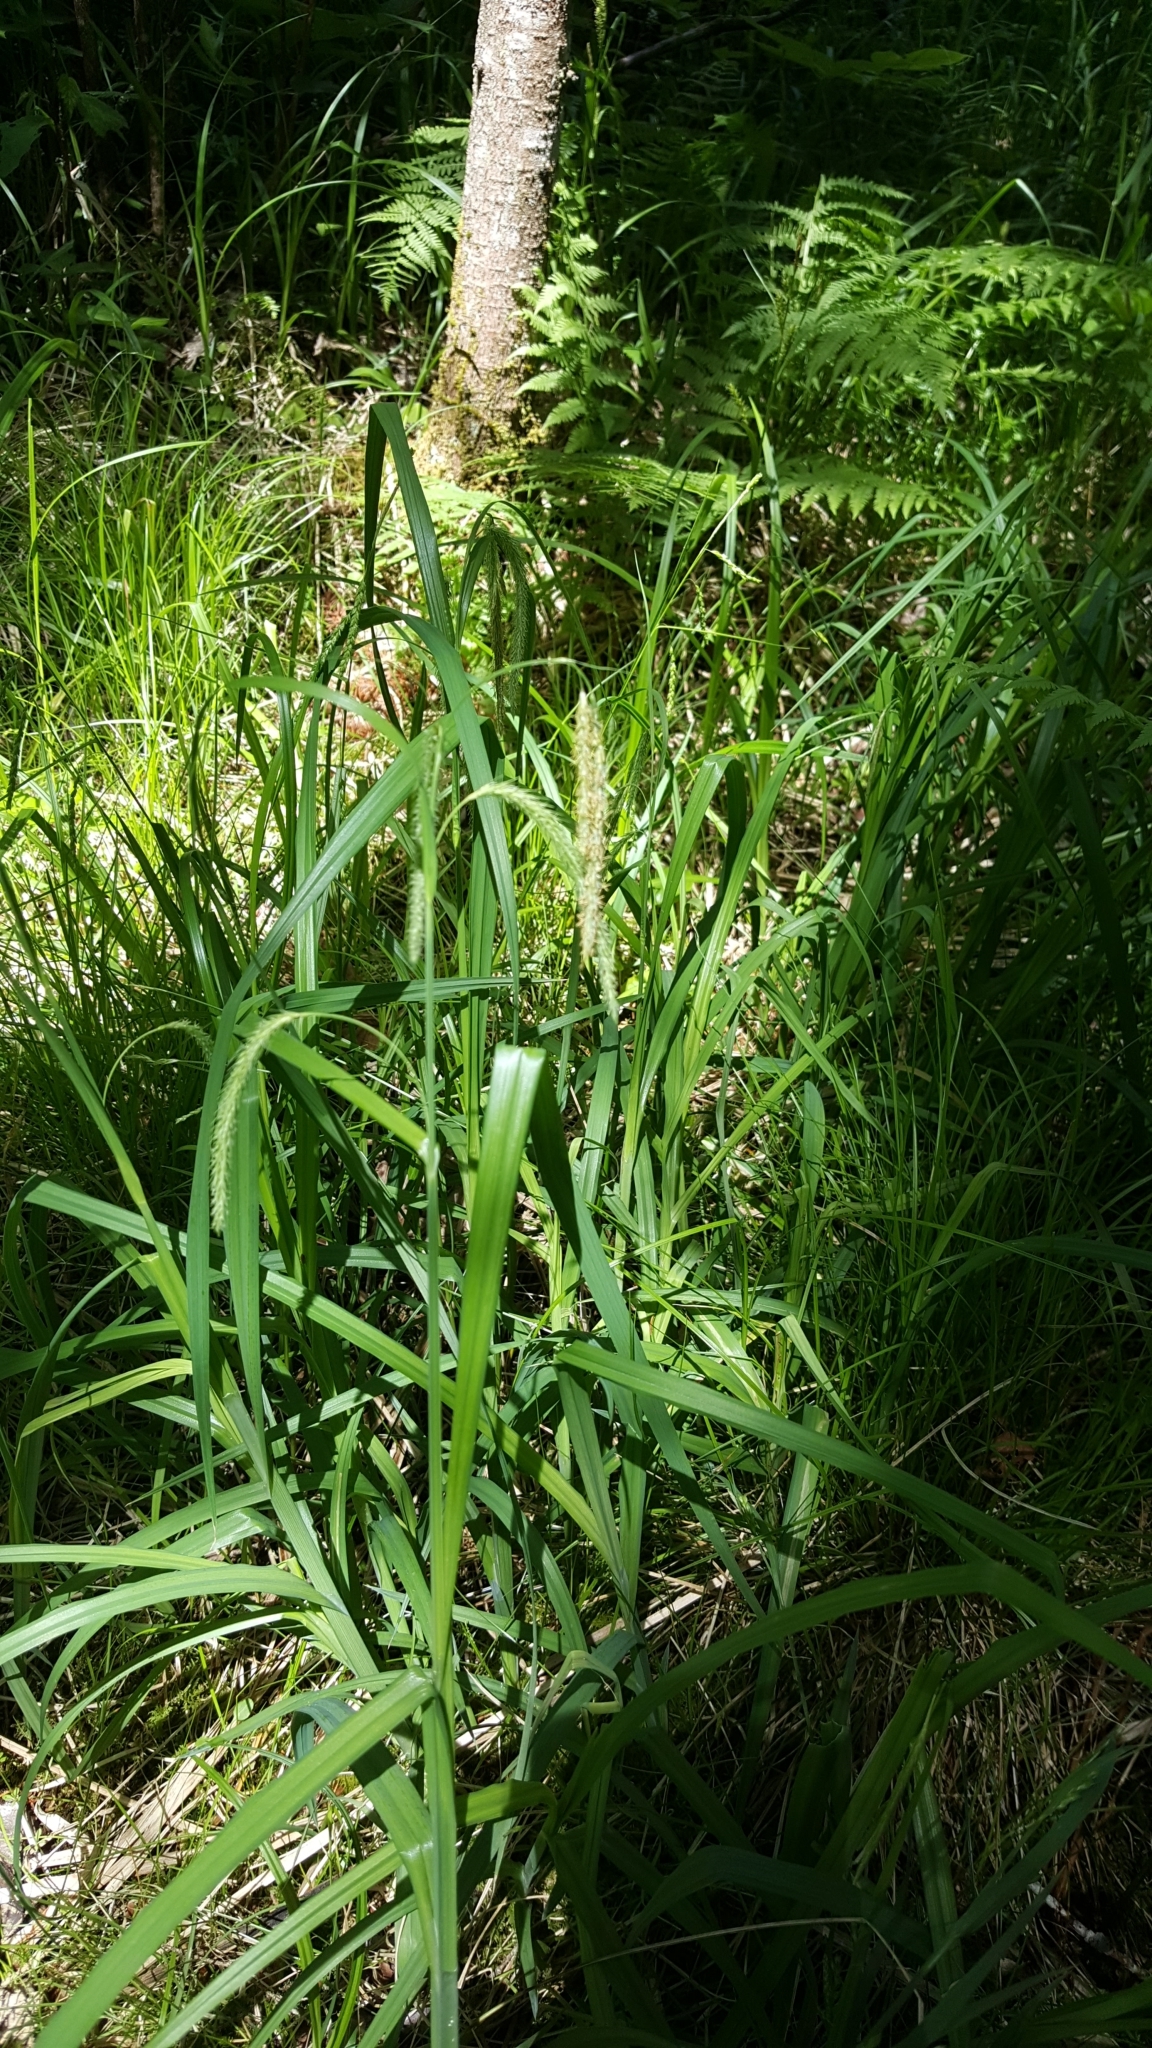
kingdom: Plantae
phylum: Tracheophyta
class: Liliopsida
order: Poales
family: Cyperaceae
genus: Carex
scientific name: Carex gynandra
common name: Nodding sedge
